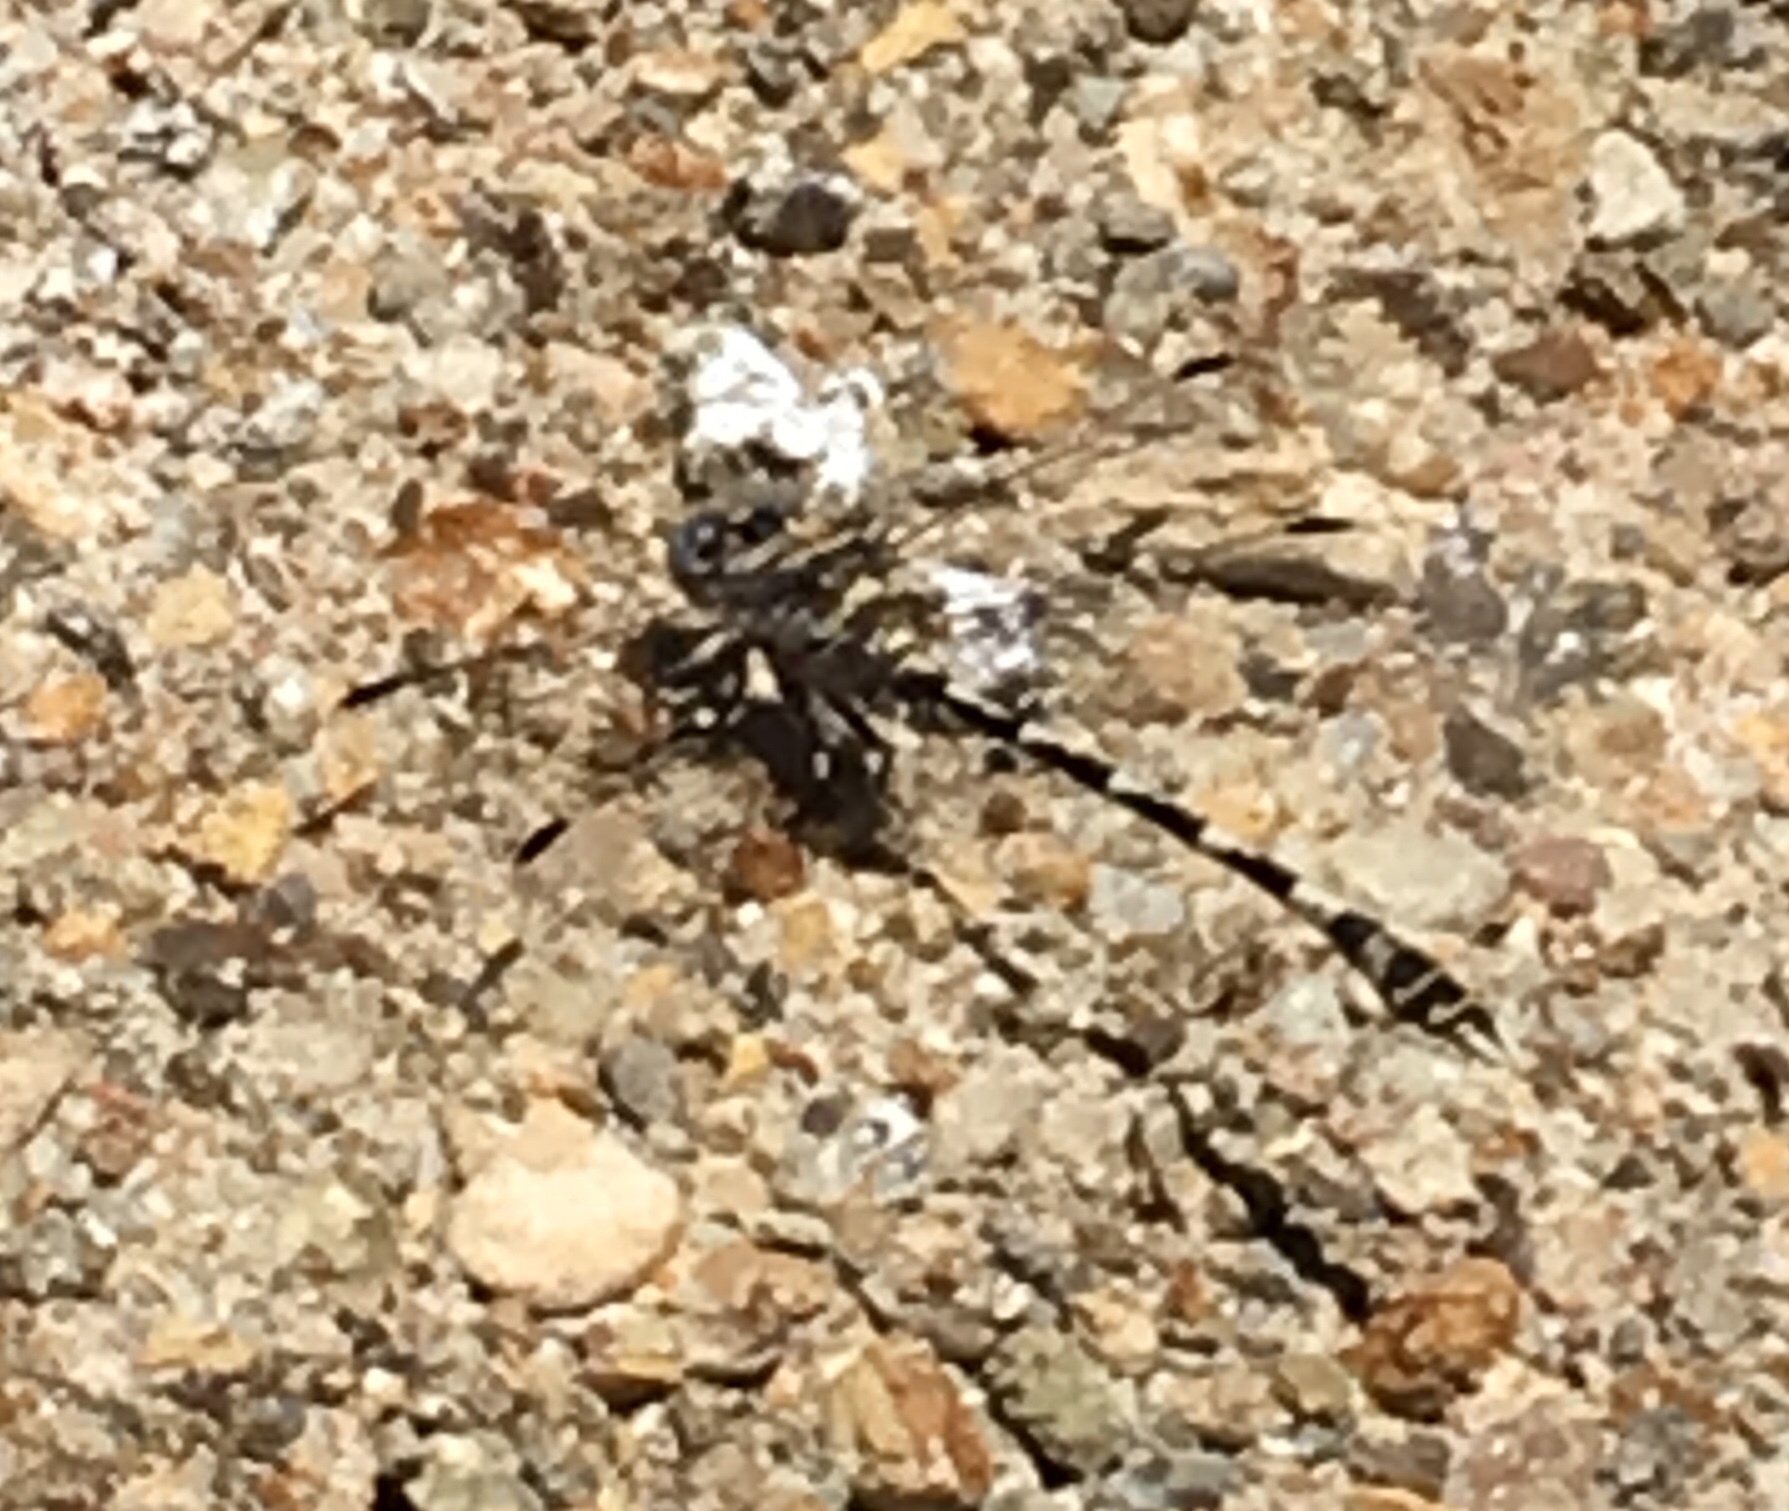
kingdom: Animalia
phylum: Arthropoda
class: Insecta
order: Odonata
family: Gomphidae
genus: Progomphus
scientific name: Progomphus borealis
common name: Gray sanddragon
